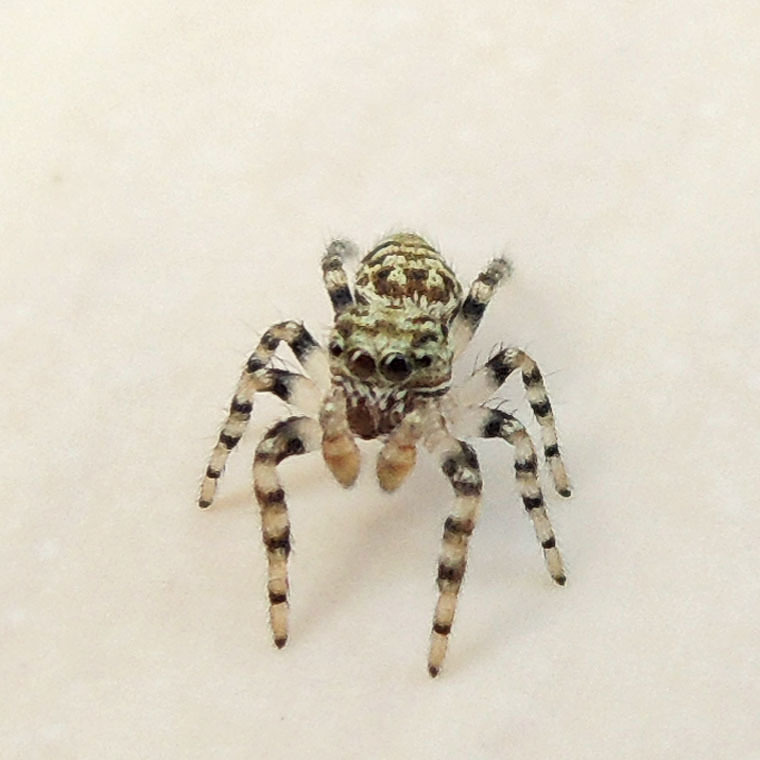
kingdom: Animalia
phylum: Arthropoda
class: Arachnida
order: Araneae
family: Salticidae
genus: Pelegrina
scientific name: Pelegrina galathea
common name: Jumping spiders
